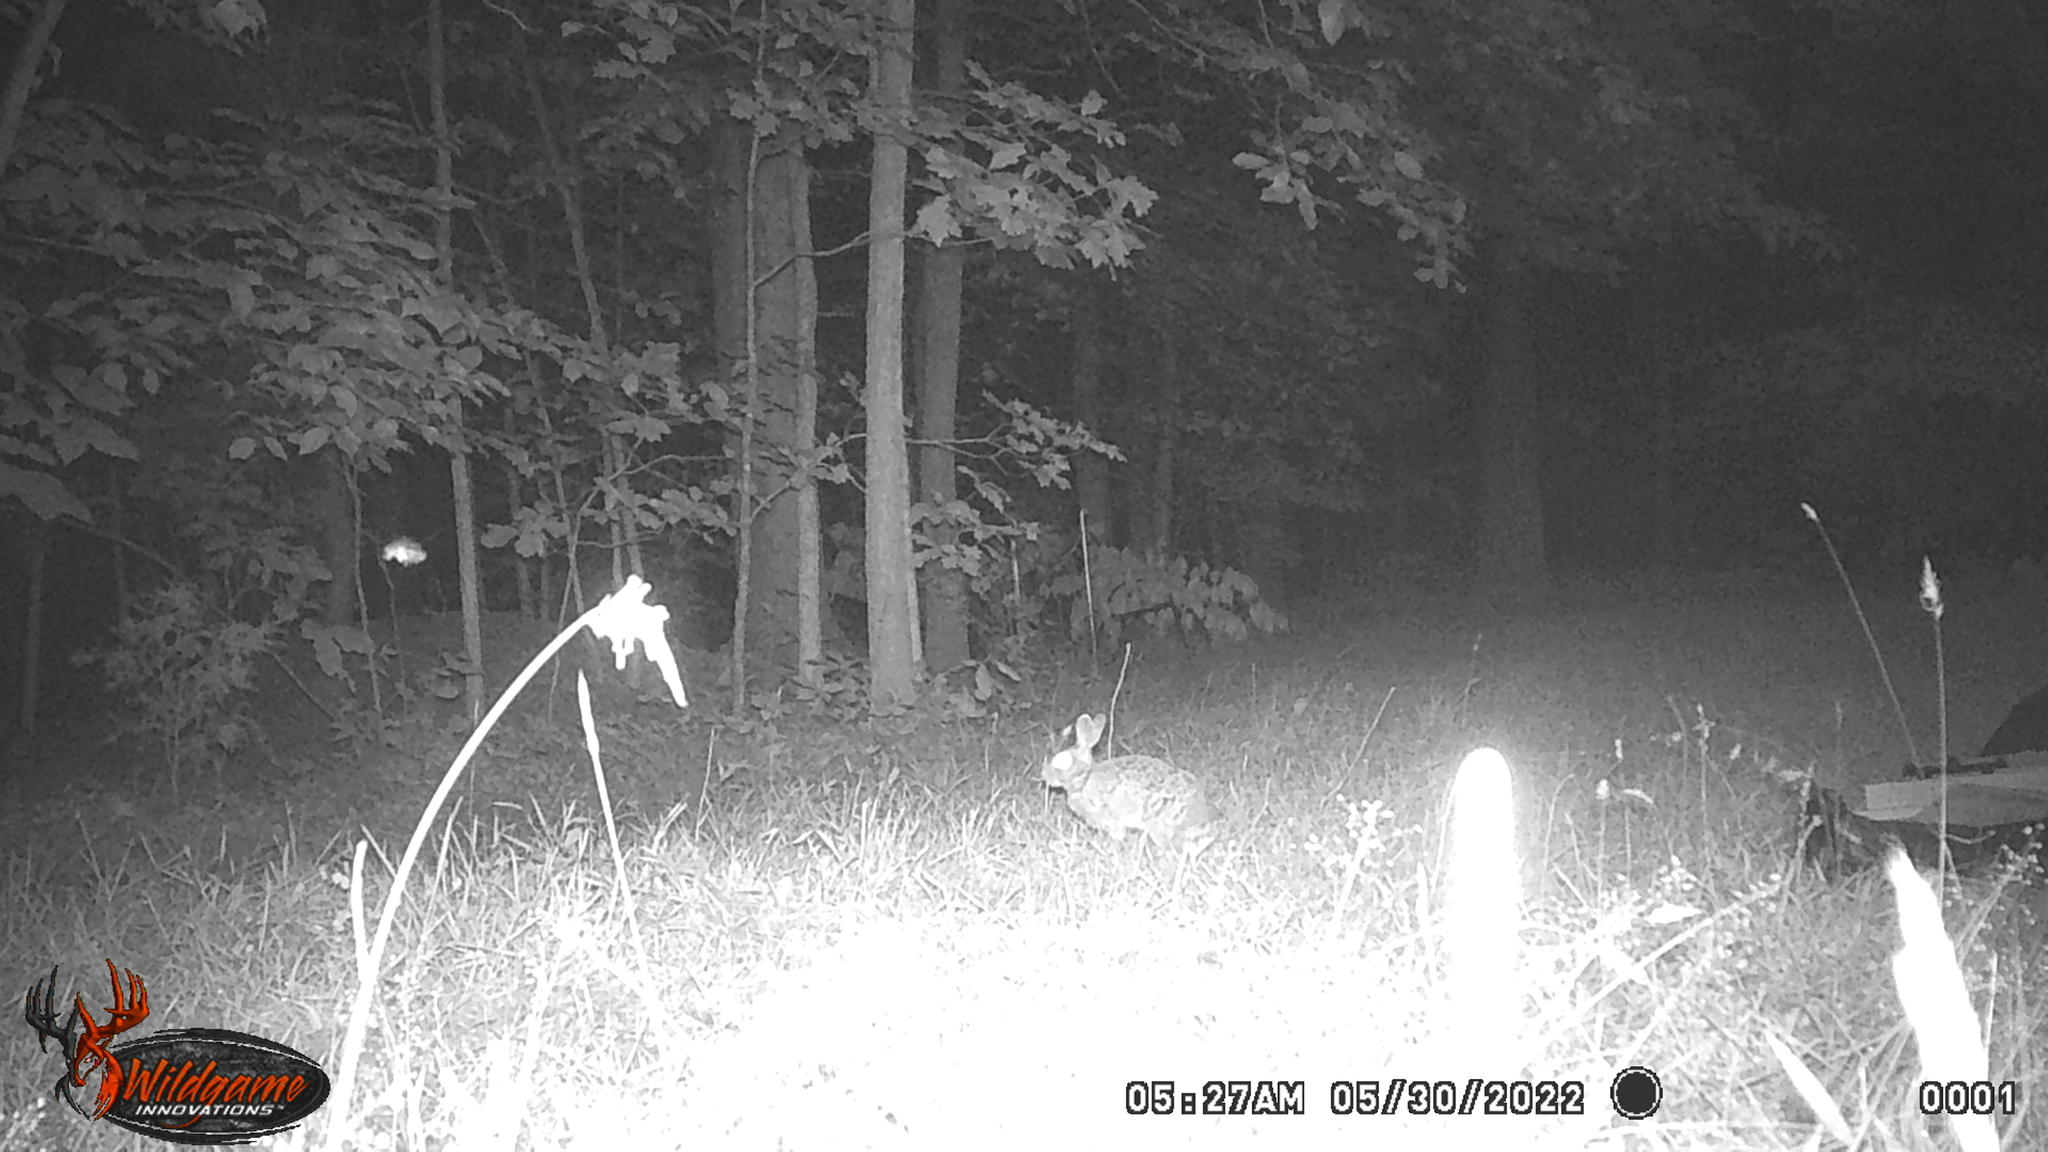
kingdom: Animalia
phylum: Chordata
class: Mammalia
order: Lagomorpha
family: Leporidae
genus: Sylvilagus
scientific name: Sylvilagus floridanus
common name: Eastern cottontail
